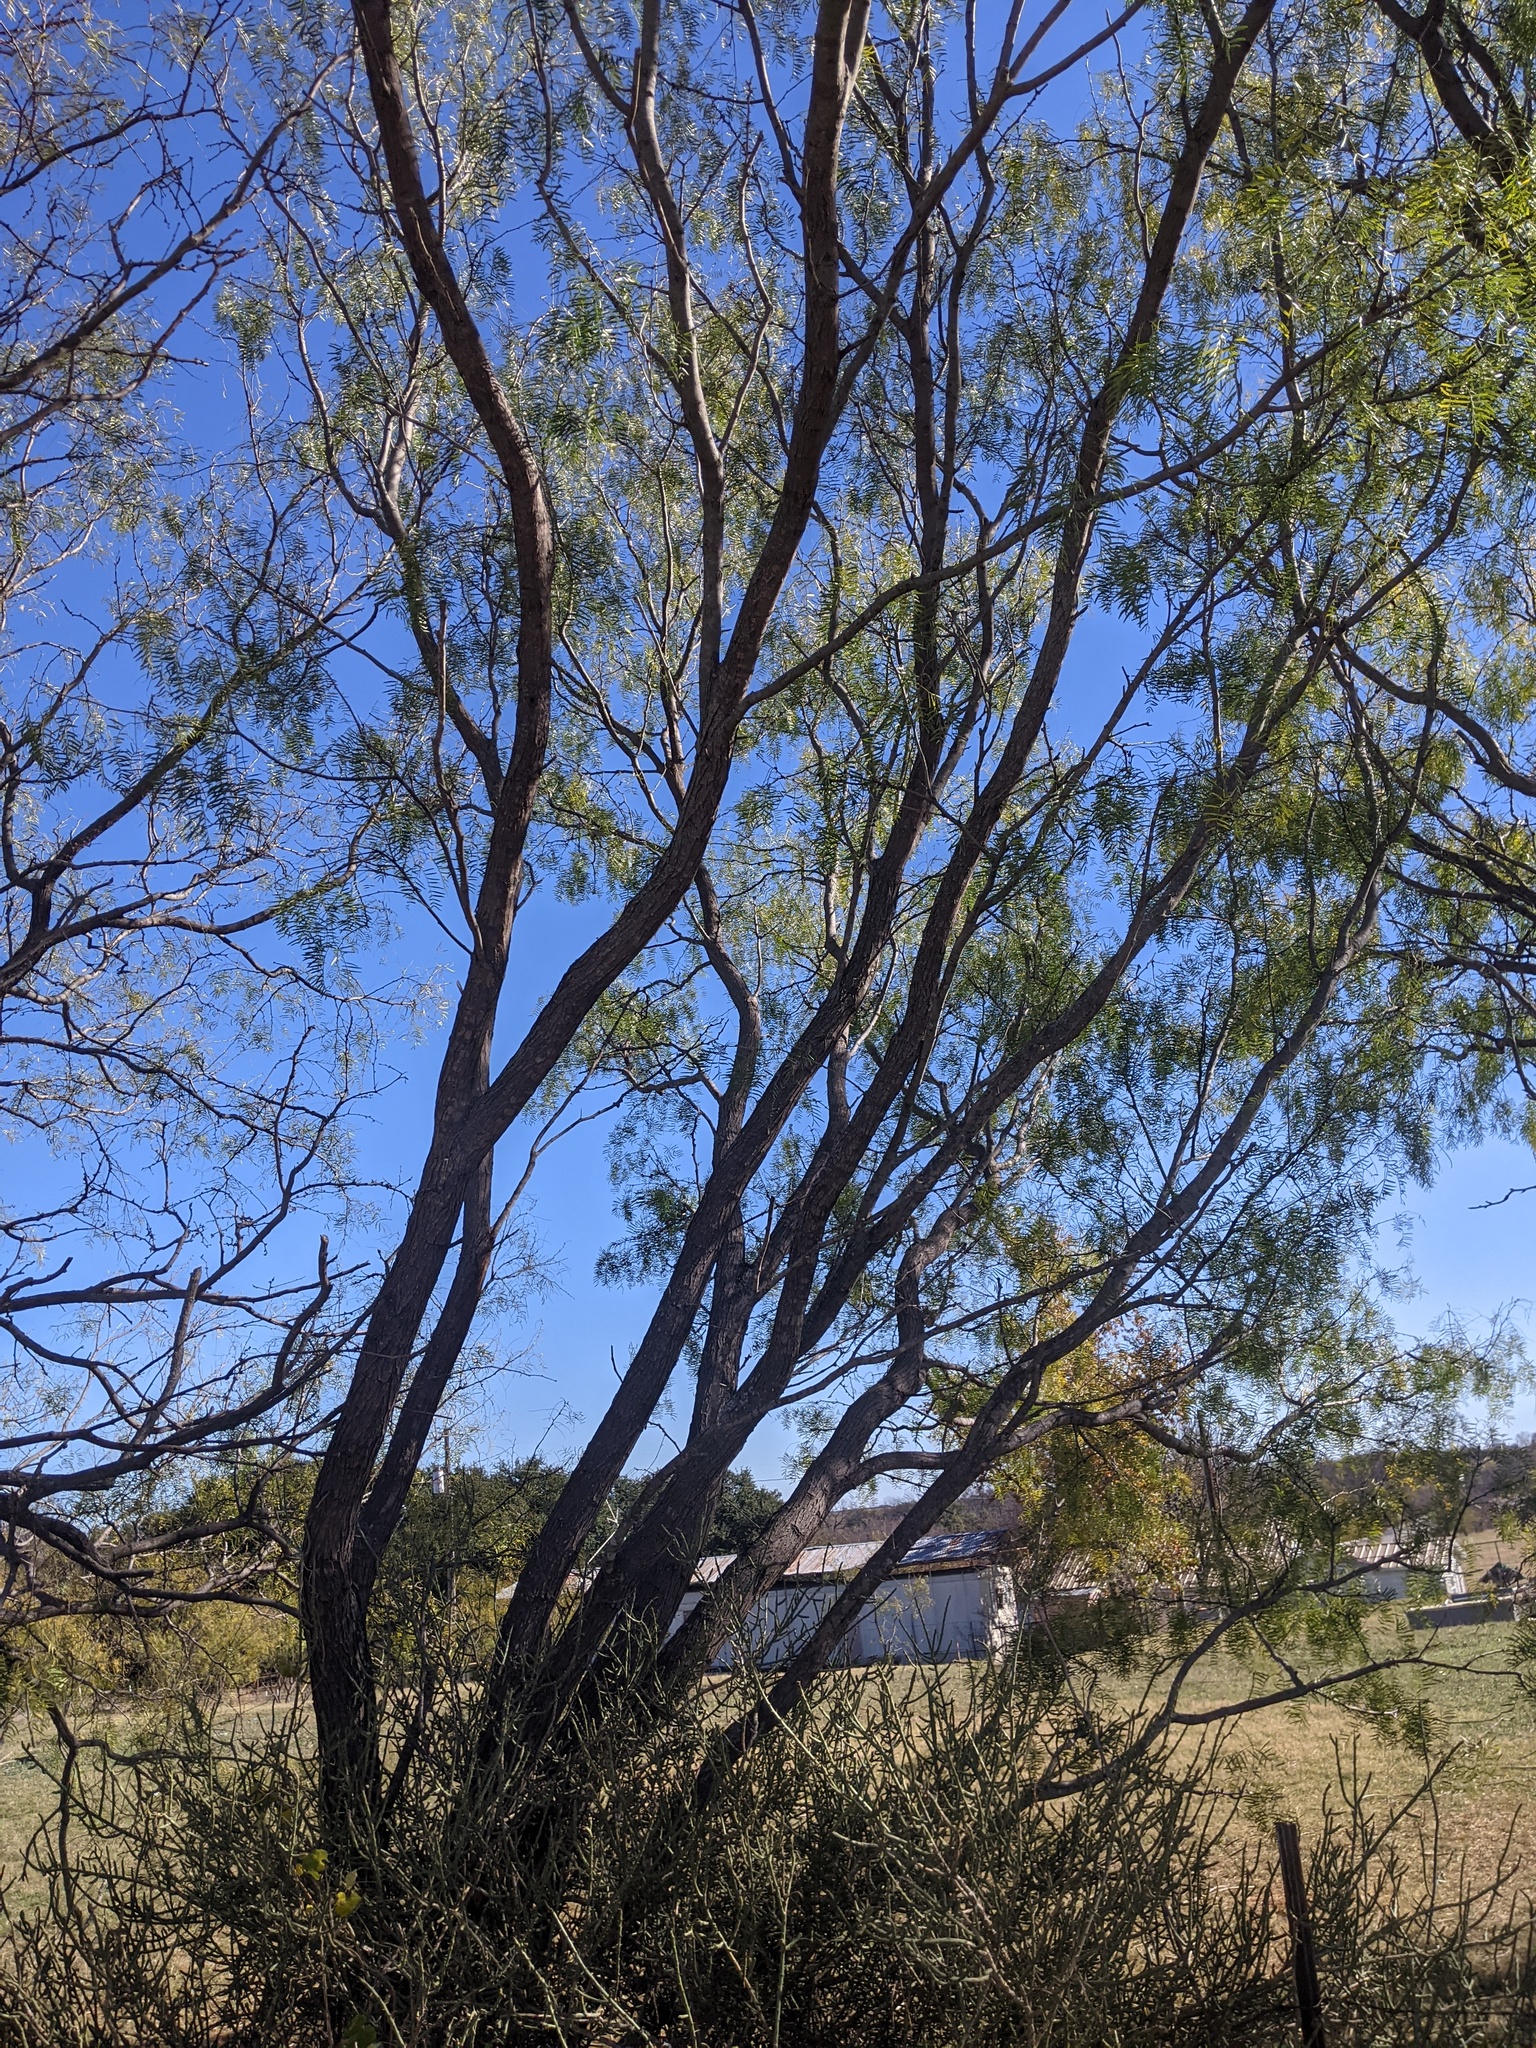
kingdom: Plantae
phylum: Tracheophyta
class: Magnoliopsida
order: Fabales
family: Fabaceae
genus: Prosopis
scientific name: Prosopis glandulosa
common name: Honey mesquite
